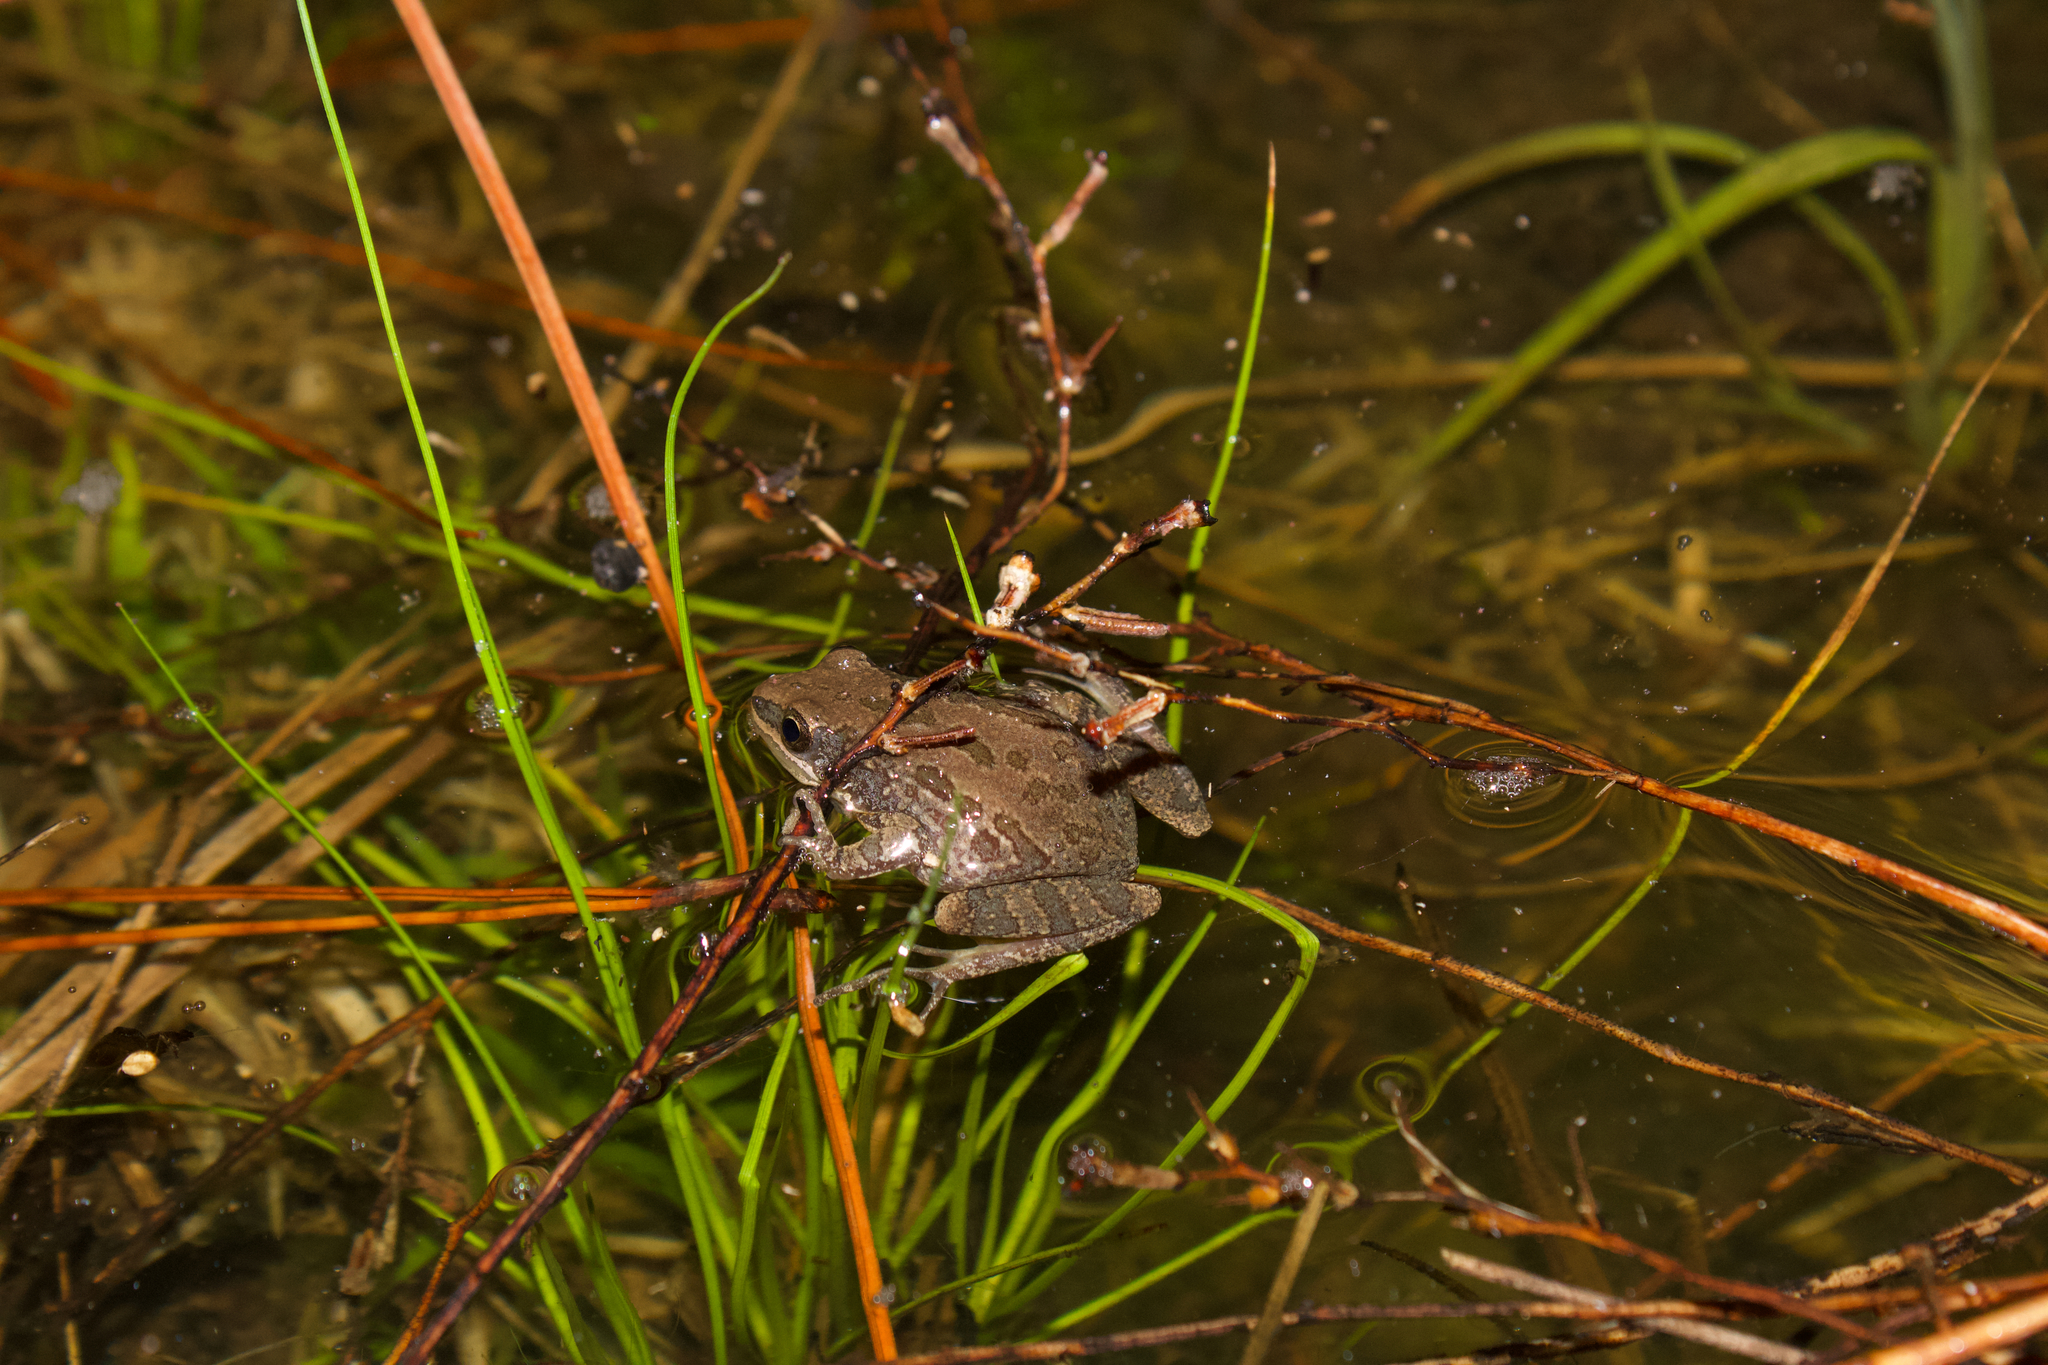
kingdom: Animalia
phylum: Chordata
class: Amphibia
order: Anura
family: Hylidae
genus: Pseudacris
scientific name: Pseudacris nigrita
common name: Southern chorus frog
